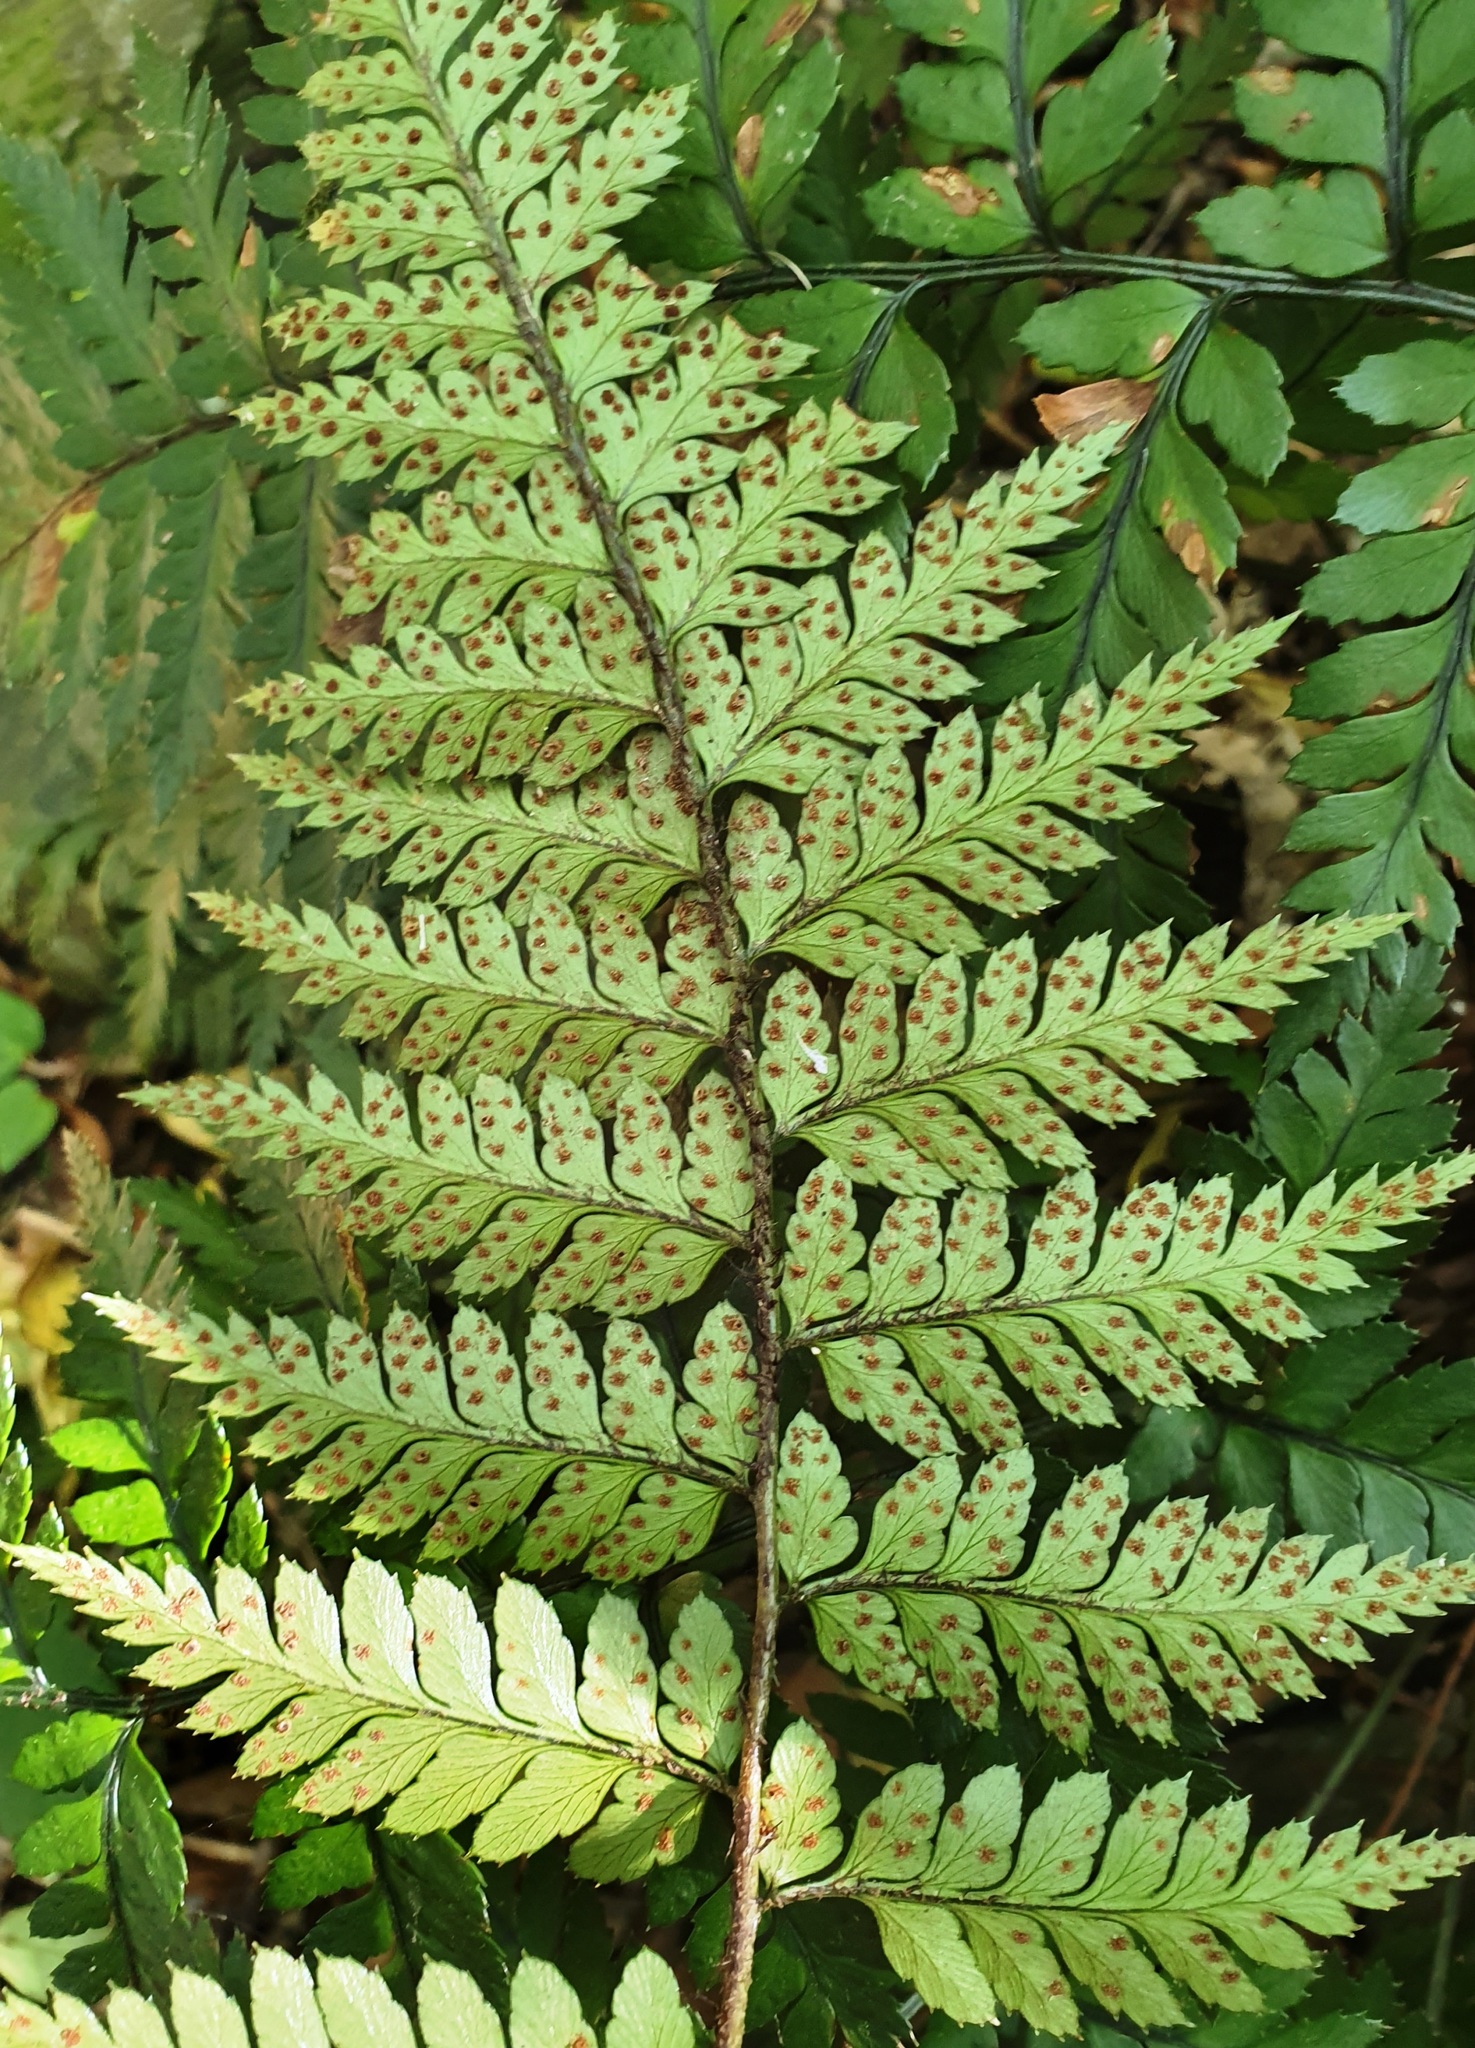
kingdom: Plantae
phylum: Tracheophyta
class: Polypodiopsida
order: Polypodiales
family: Dryopteridaceae
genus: Polystichum
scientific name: Polystichum neozelandicum
